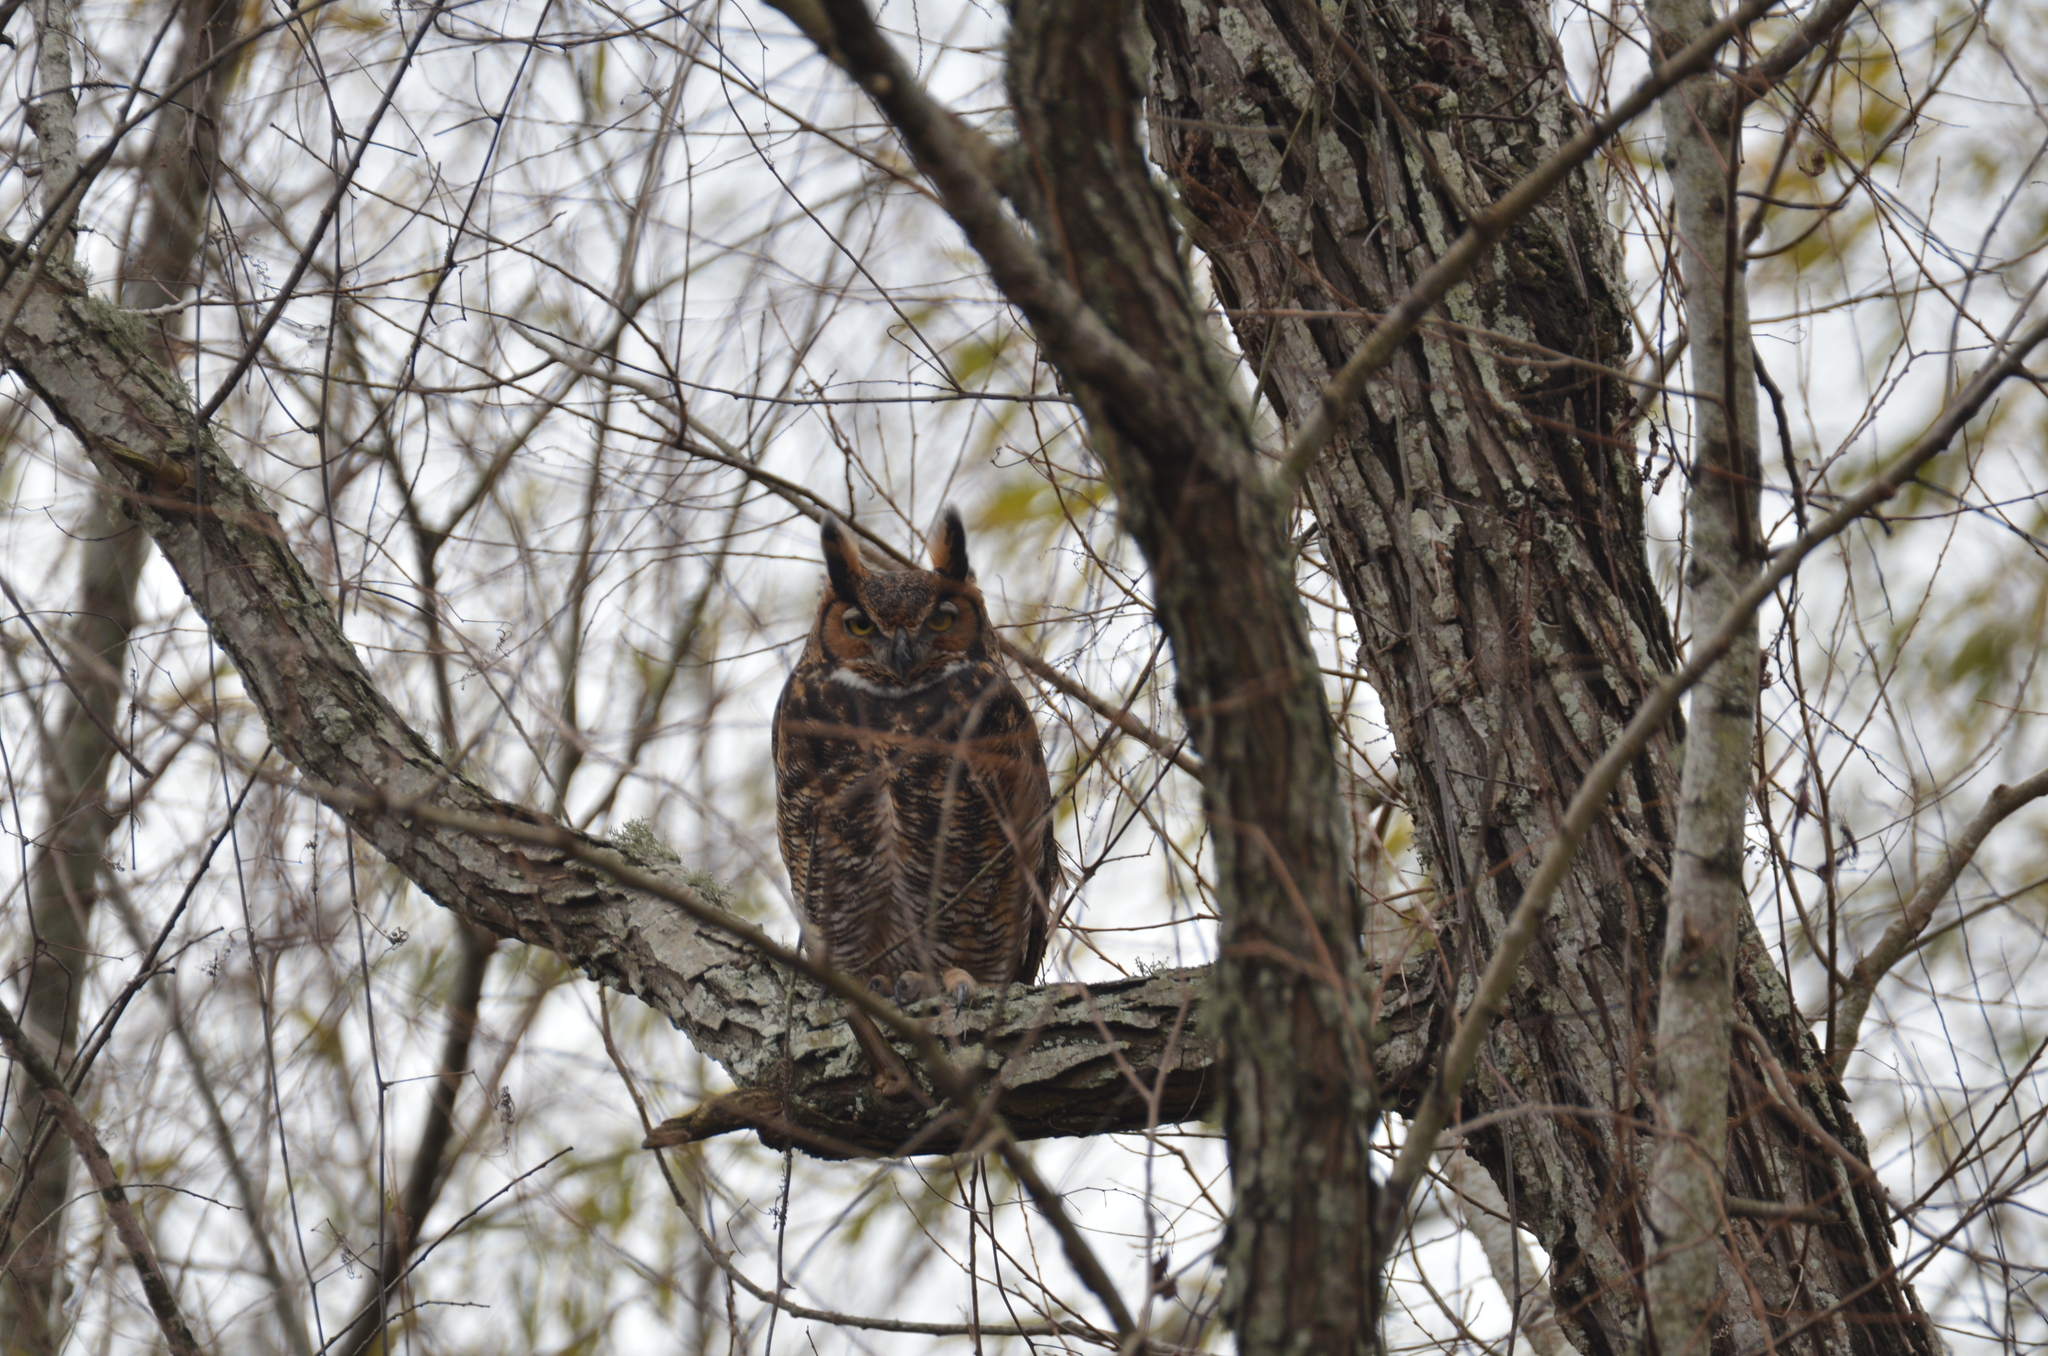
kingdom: Animalia
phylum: Chordata
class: Aves
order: Strigiformes
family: Strigidae
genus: Bubo
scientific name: Bubo virginianus
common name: Great horned owl
